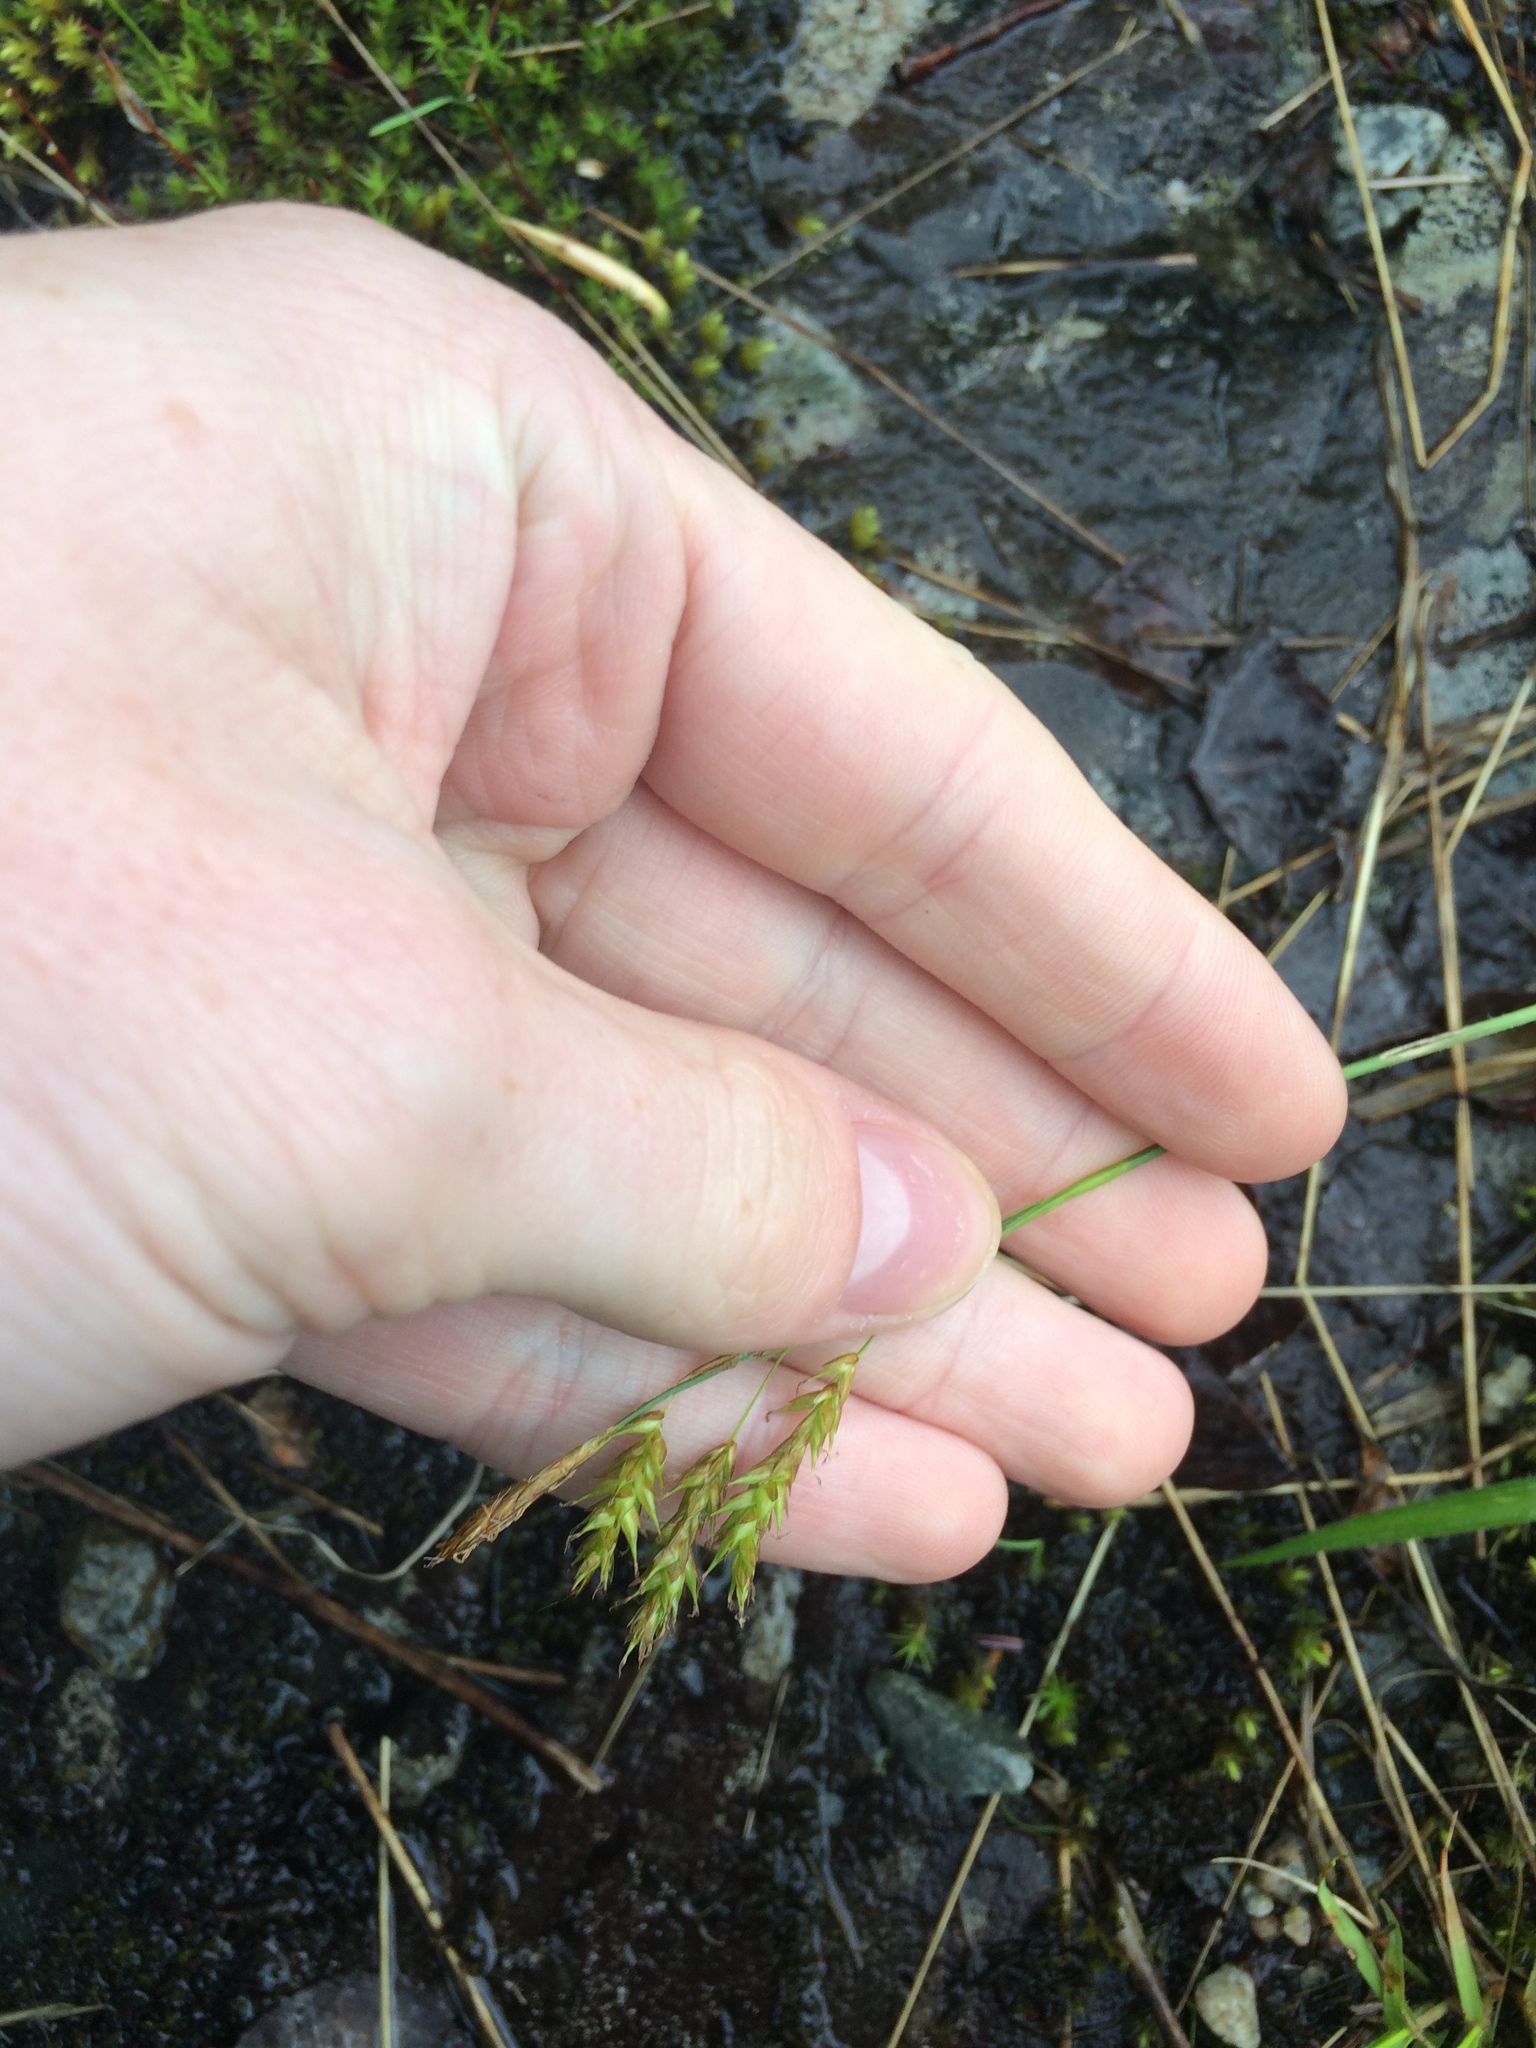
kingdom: Plantae
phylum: Tracheophyta
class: Liliopsida
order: Poales
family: Cyperaceae
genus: Carex
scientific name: Carex castanea
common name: Chestnut sedge
